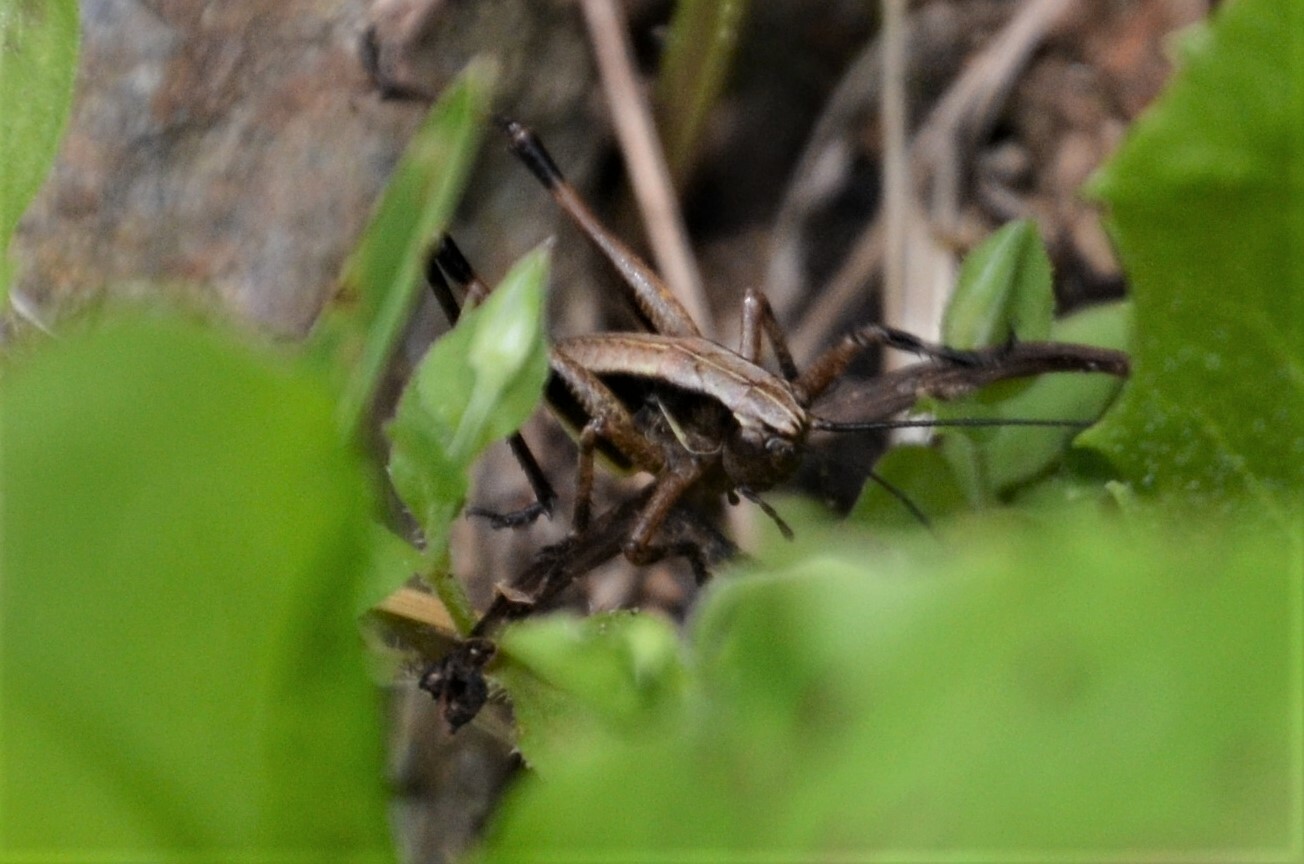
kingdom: Animalia
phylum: Arthropoda
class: Insecta
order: Orthoptera
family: Tettigoniidae
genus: Pholidoptera
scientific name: Pholidoptera griseoaptera
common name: Dark bush-cricket
